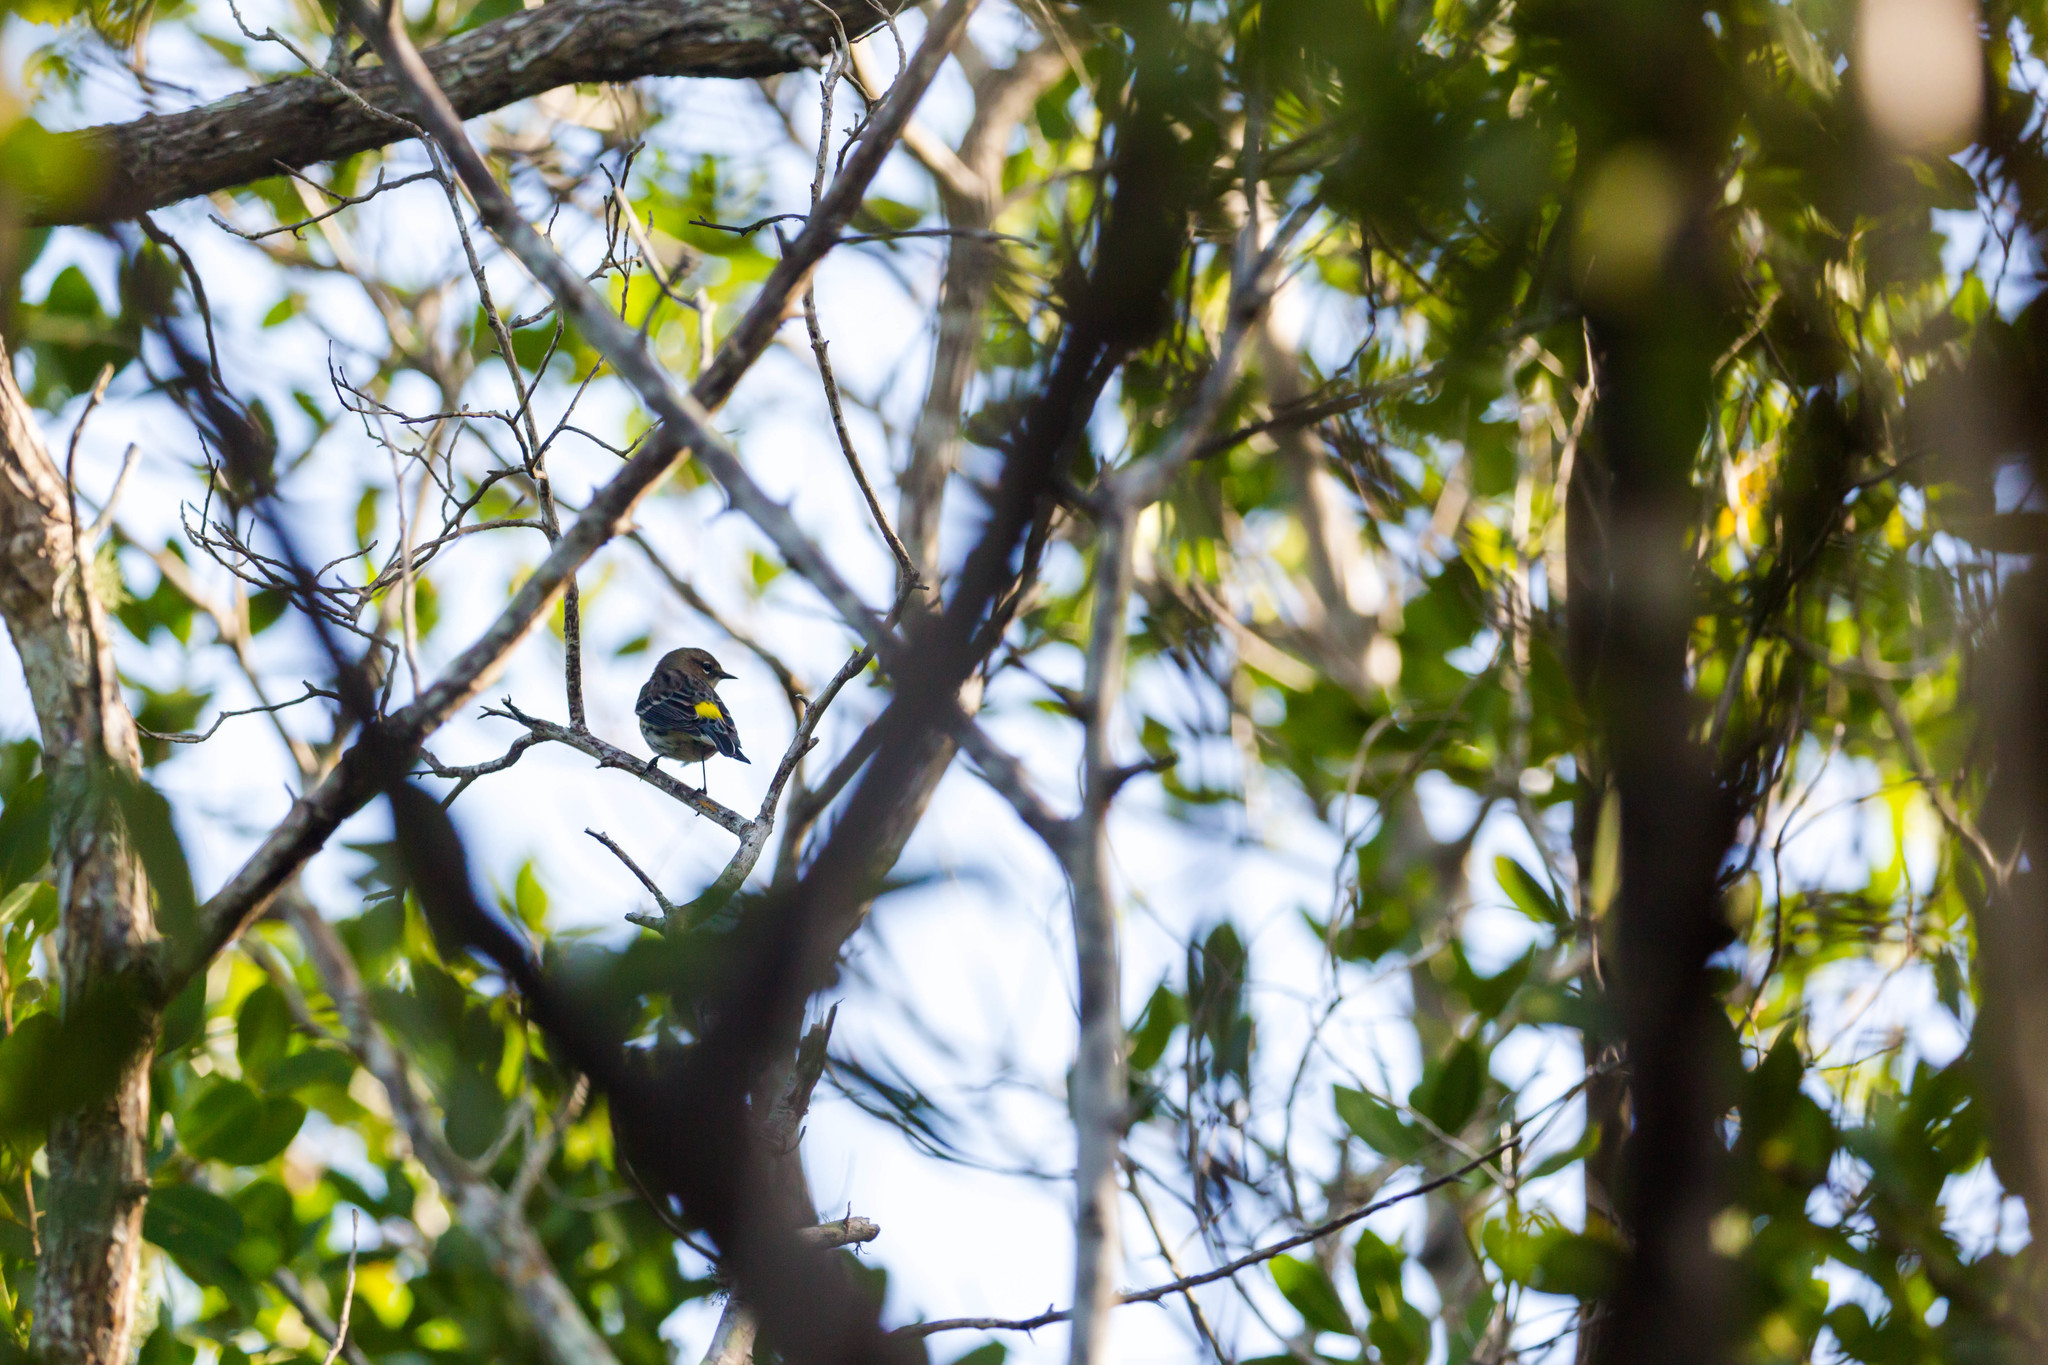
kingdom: Animalia
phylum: Chordata
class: Aves
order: Passeriformes
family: Parulidae
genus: Setophaga
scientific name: Setophaga coronata
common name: Myrtle warbler
